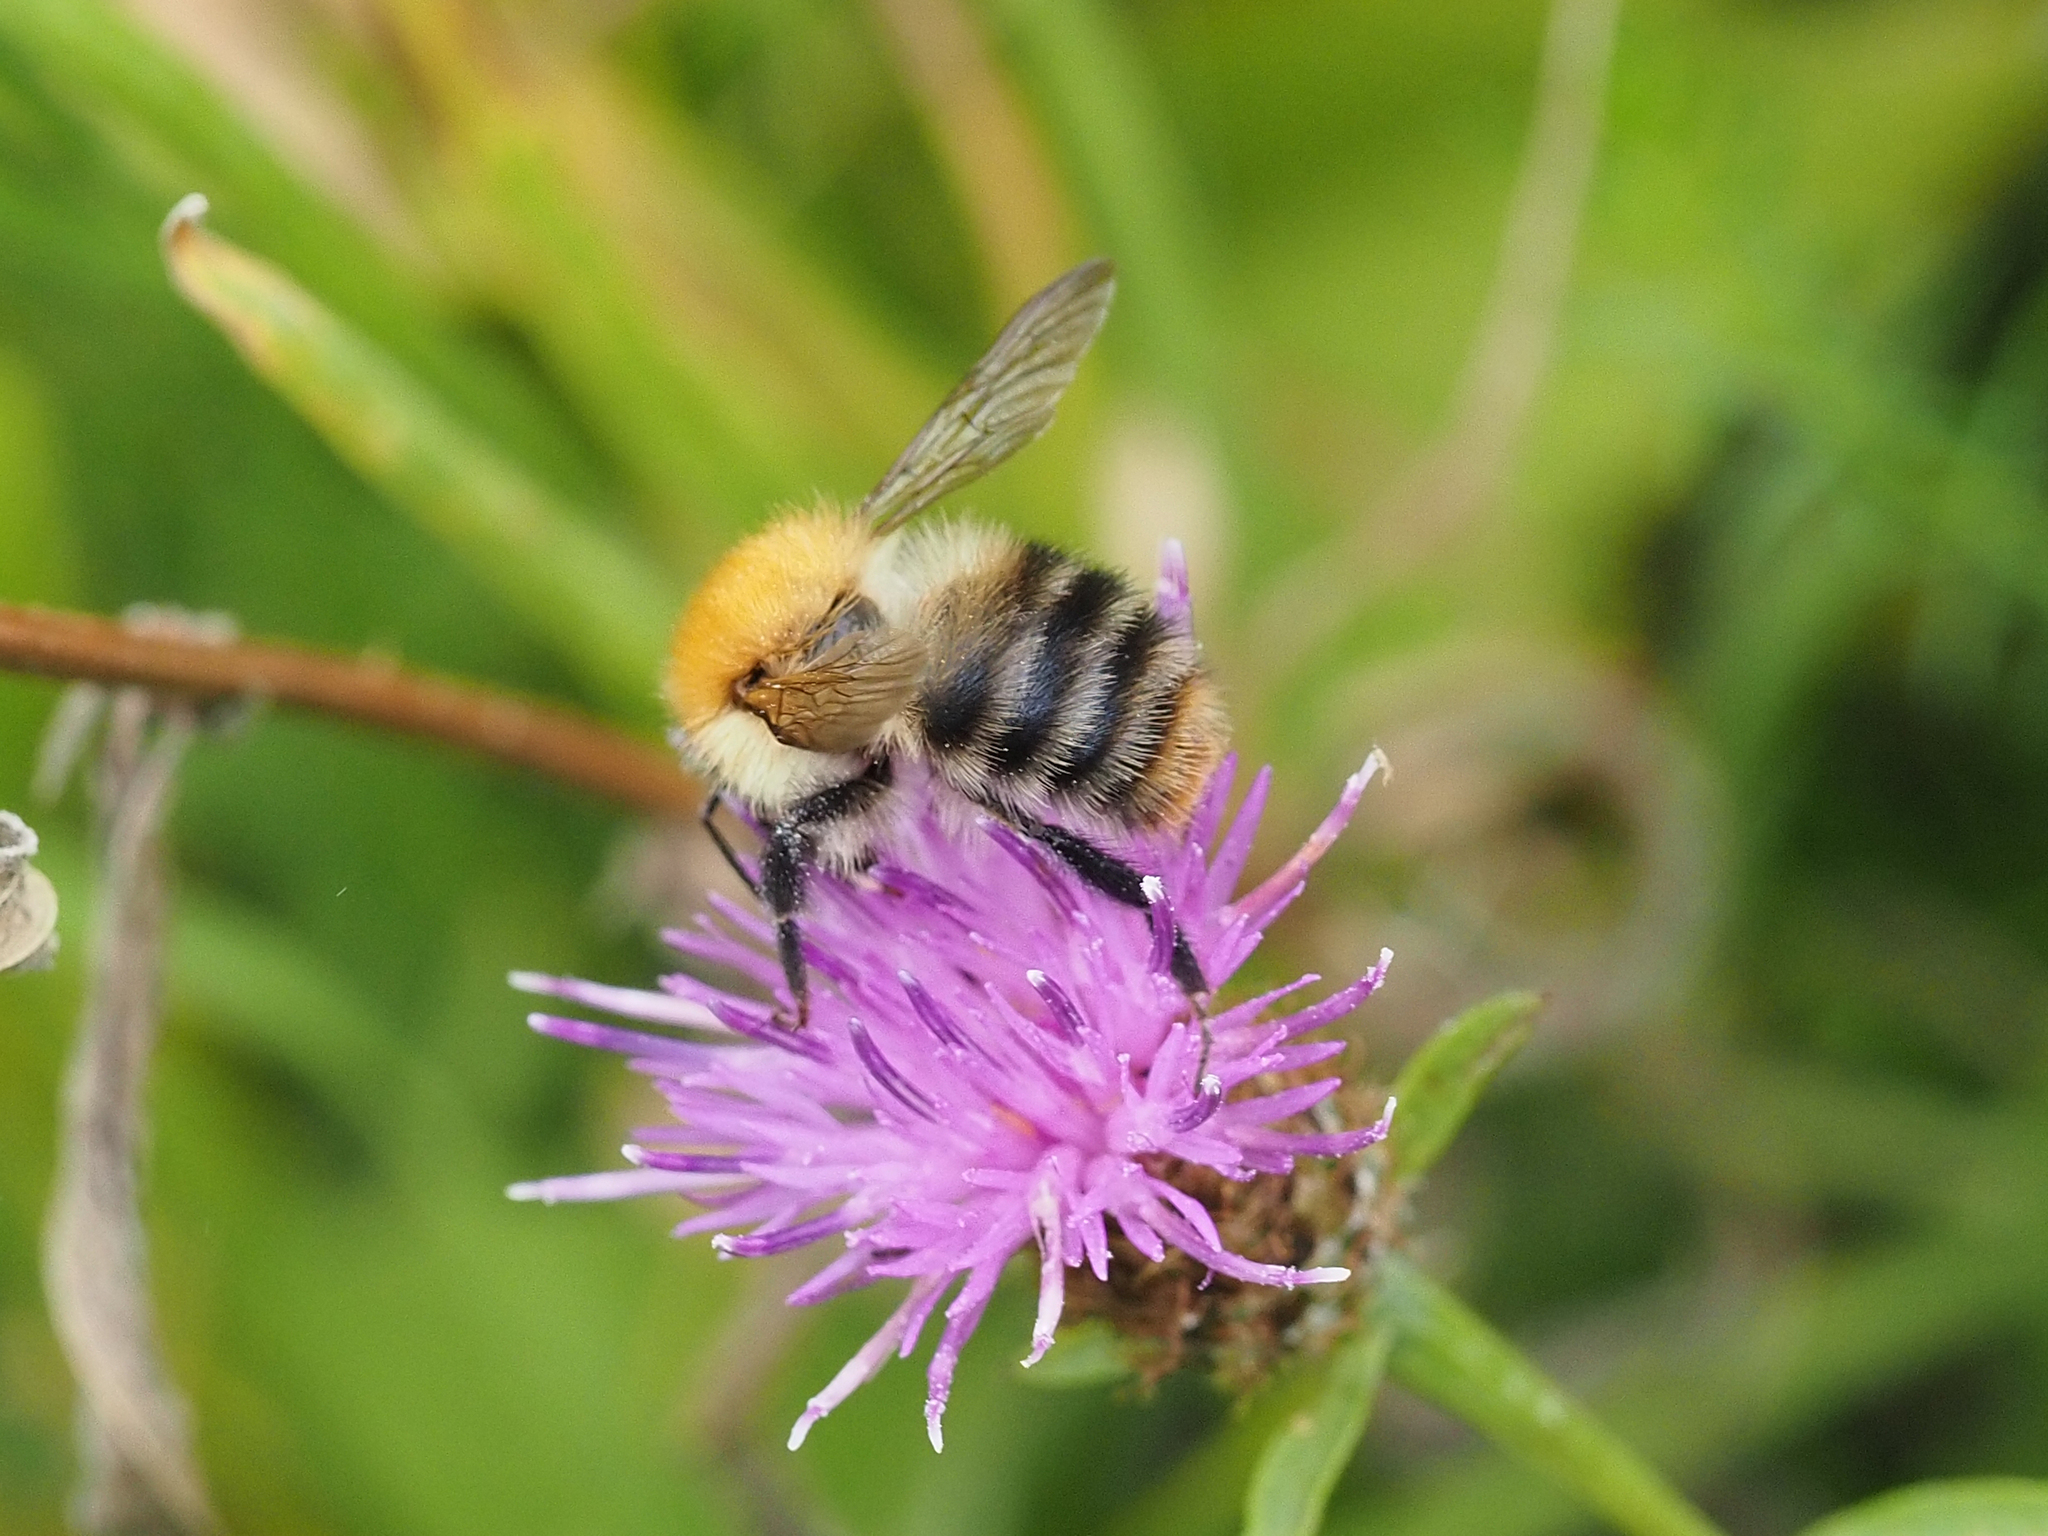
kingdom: Animalia
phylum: Arthropoda
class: Insecta
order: Hymenoptera
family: Apidae
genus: Bombus
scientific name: Bombus pascuorum
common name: Common carder bee
